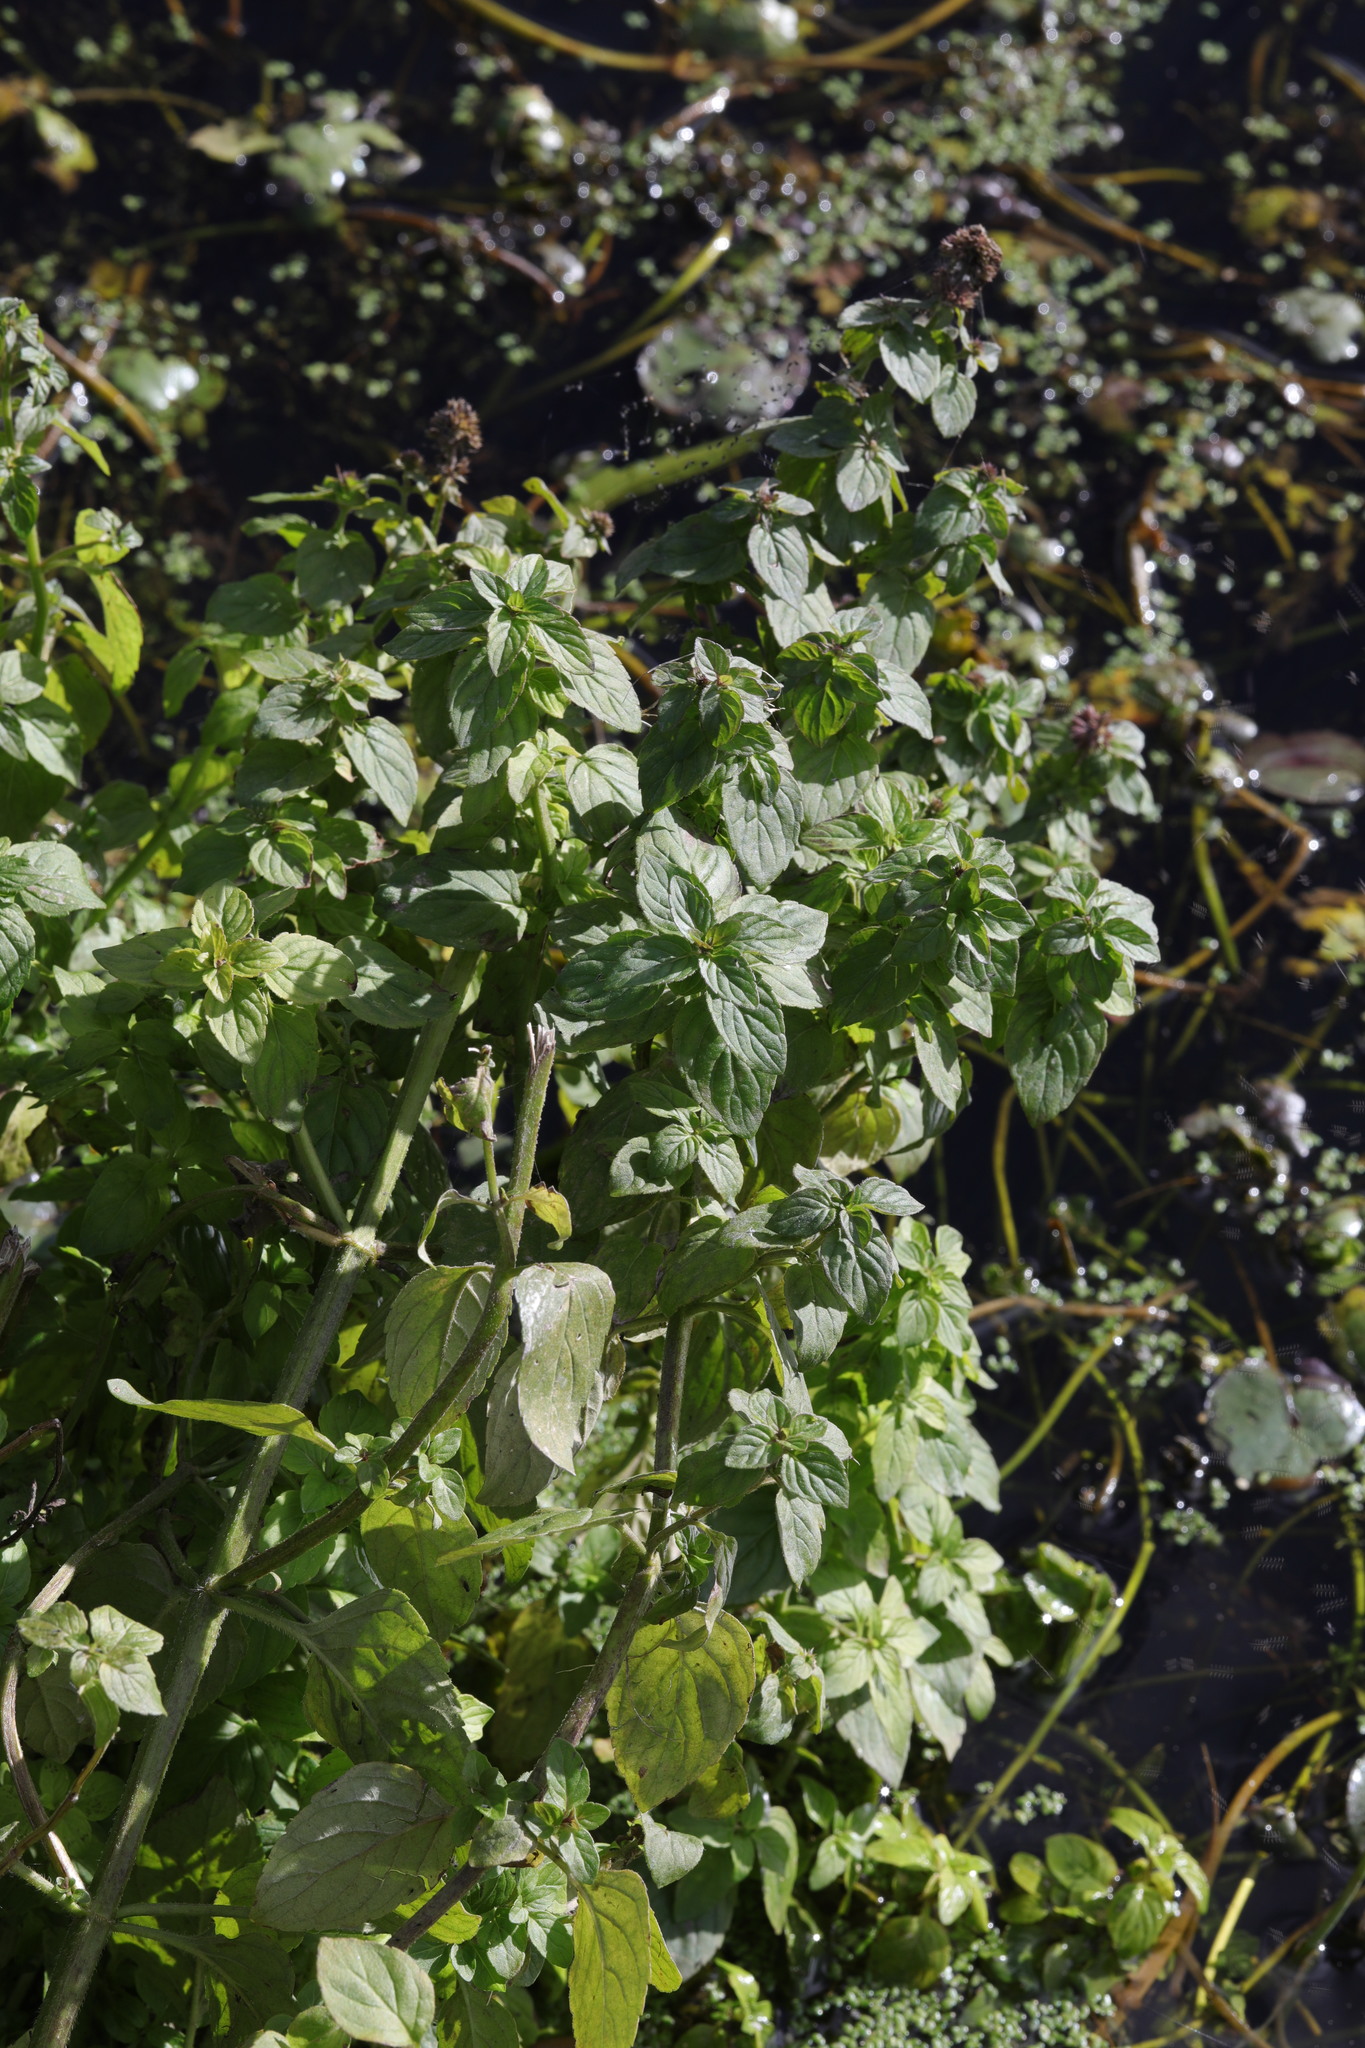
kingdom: Plantae
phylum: Tracheophyta
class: Magnoliopsida
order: Lamiales
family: Lamiaceae
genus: Mentha
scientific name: Mentha aquatica
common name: Water mint
